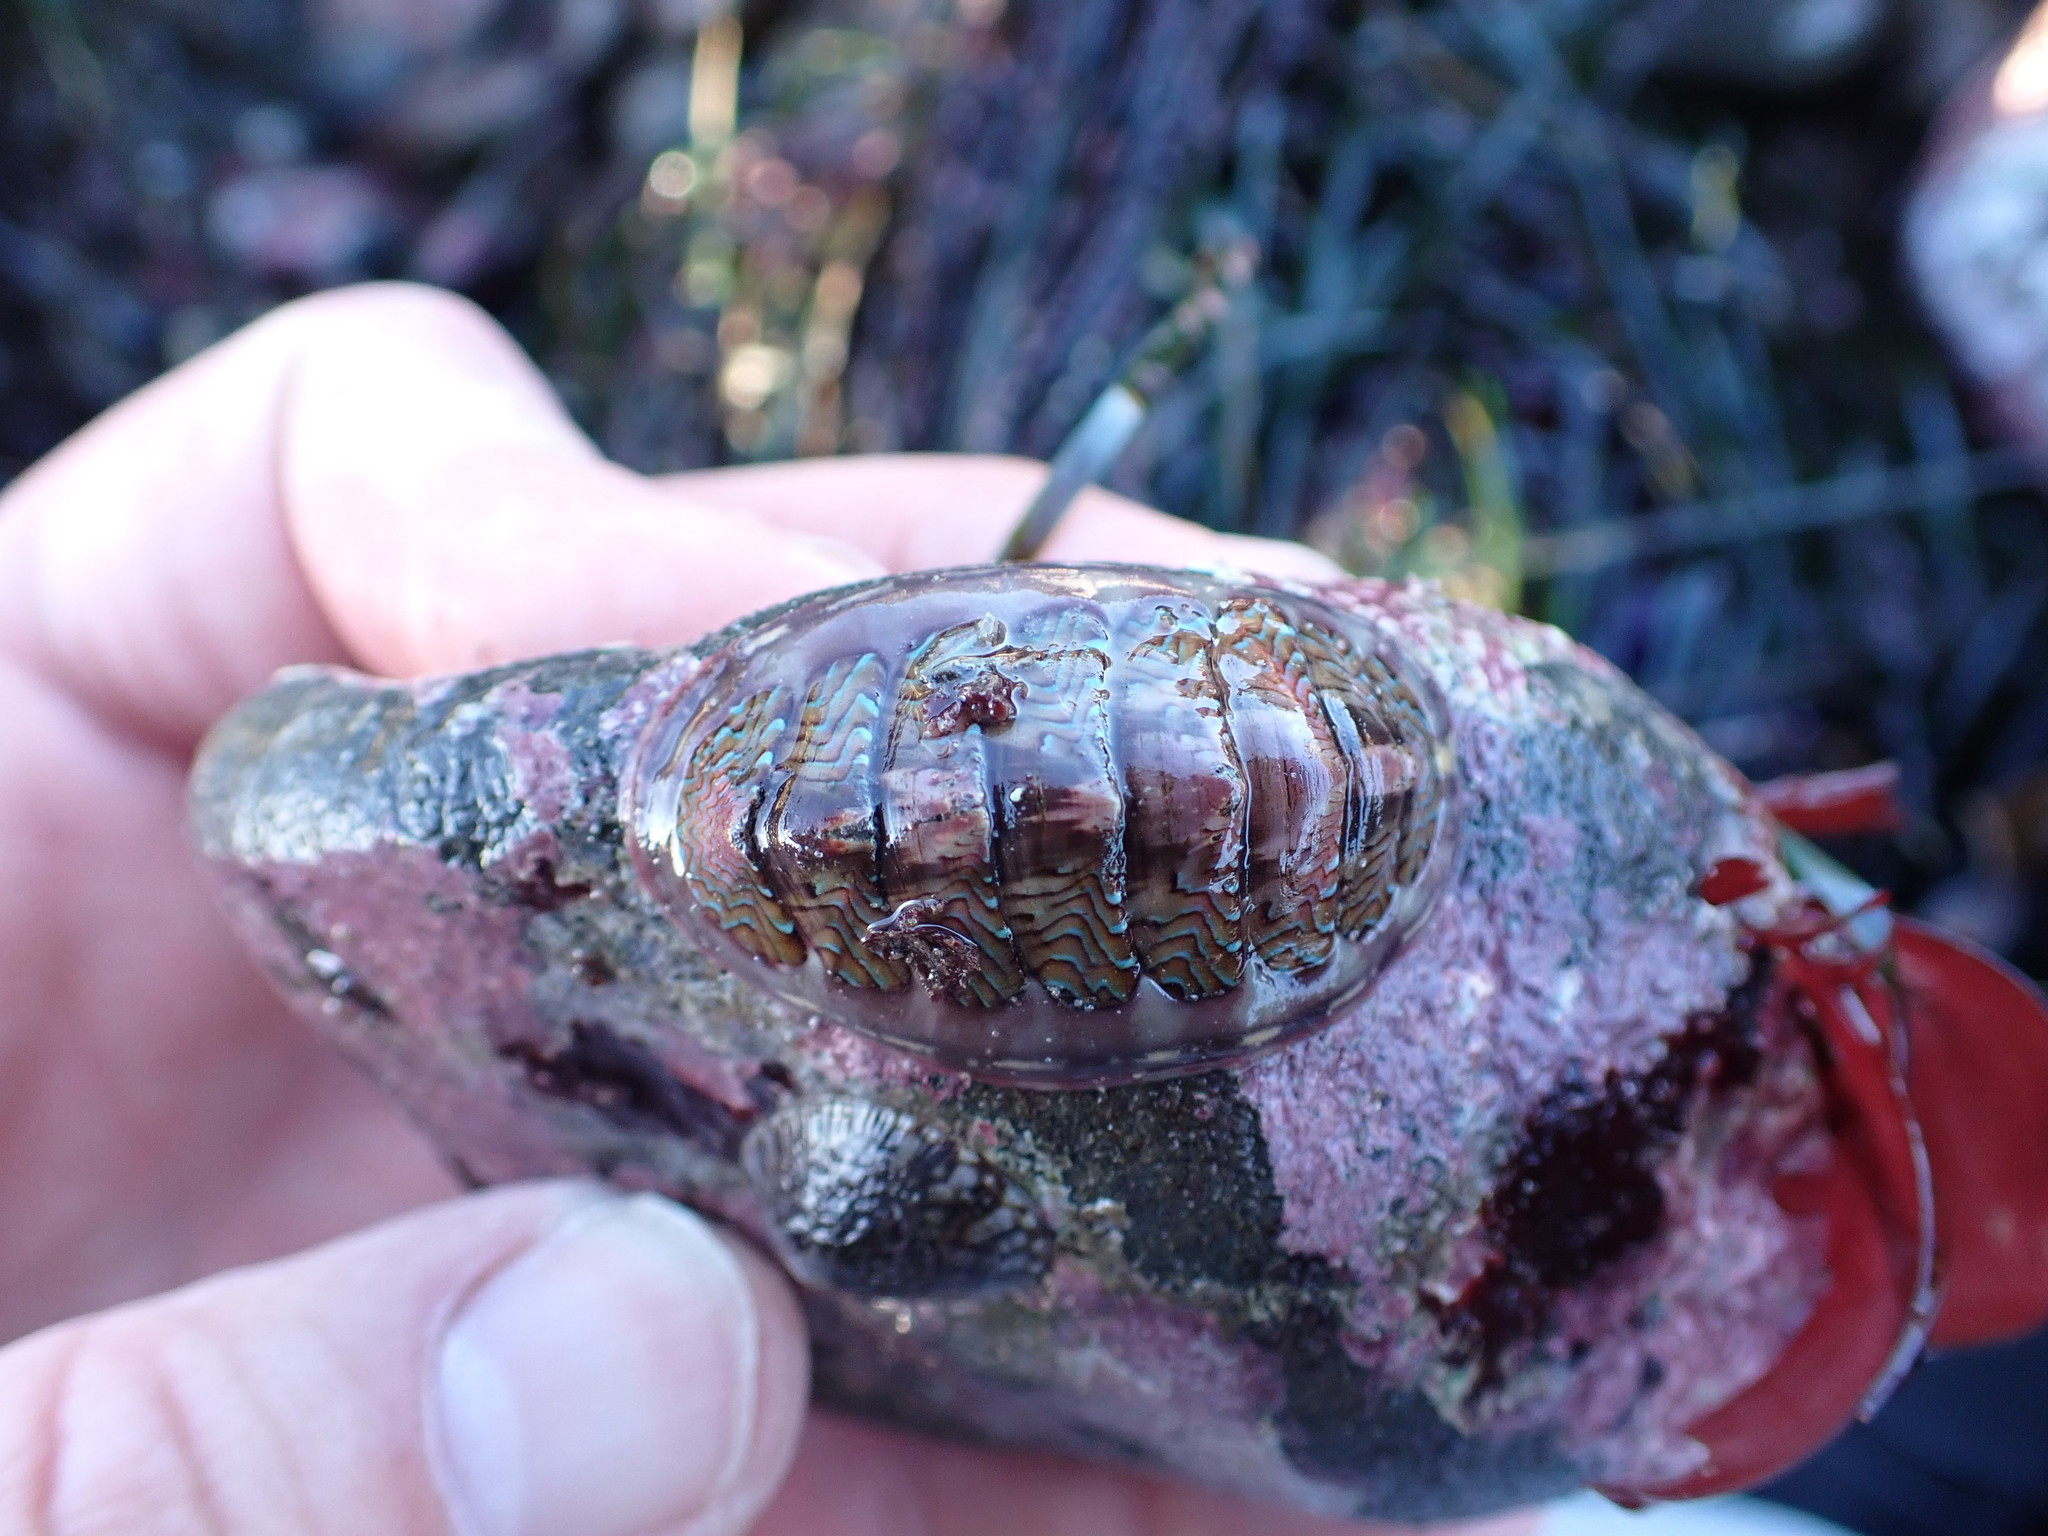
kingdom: Animalia
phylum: Mollusca
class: Polyplacophora
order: Chitonida
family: Tonicellidae
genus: Tonicella
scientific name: Tonicella lokii
